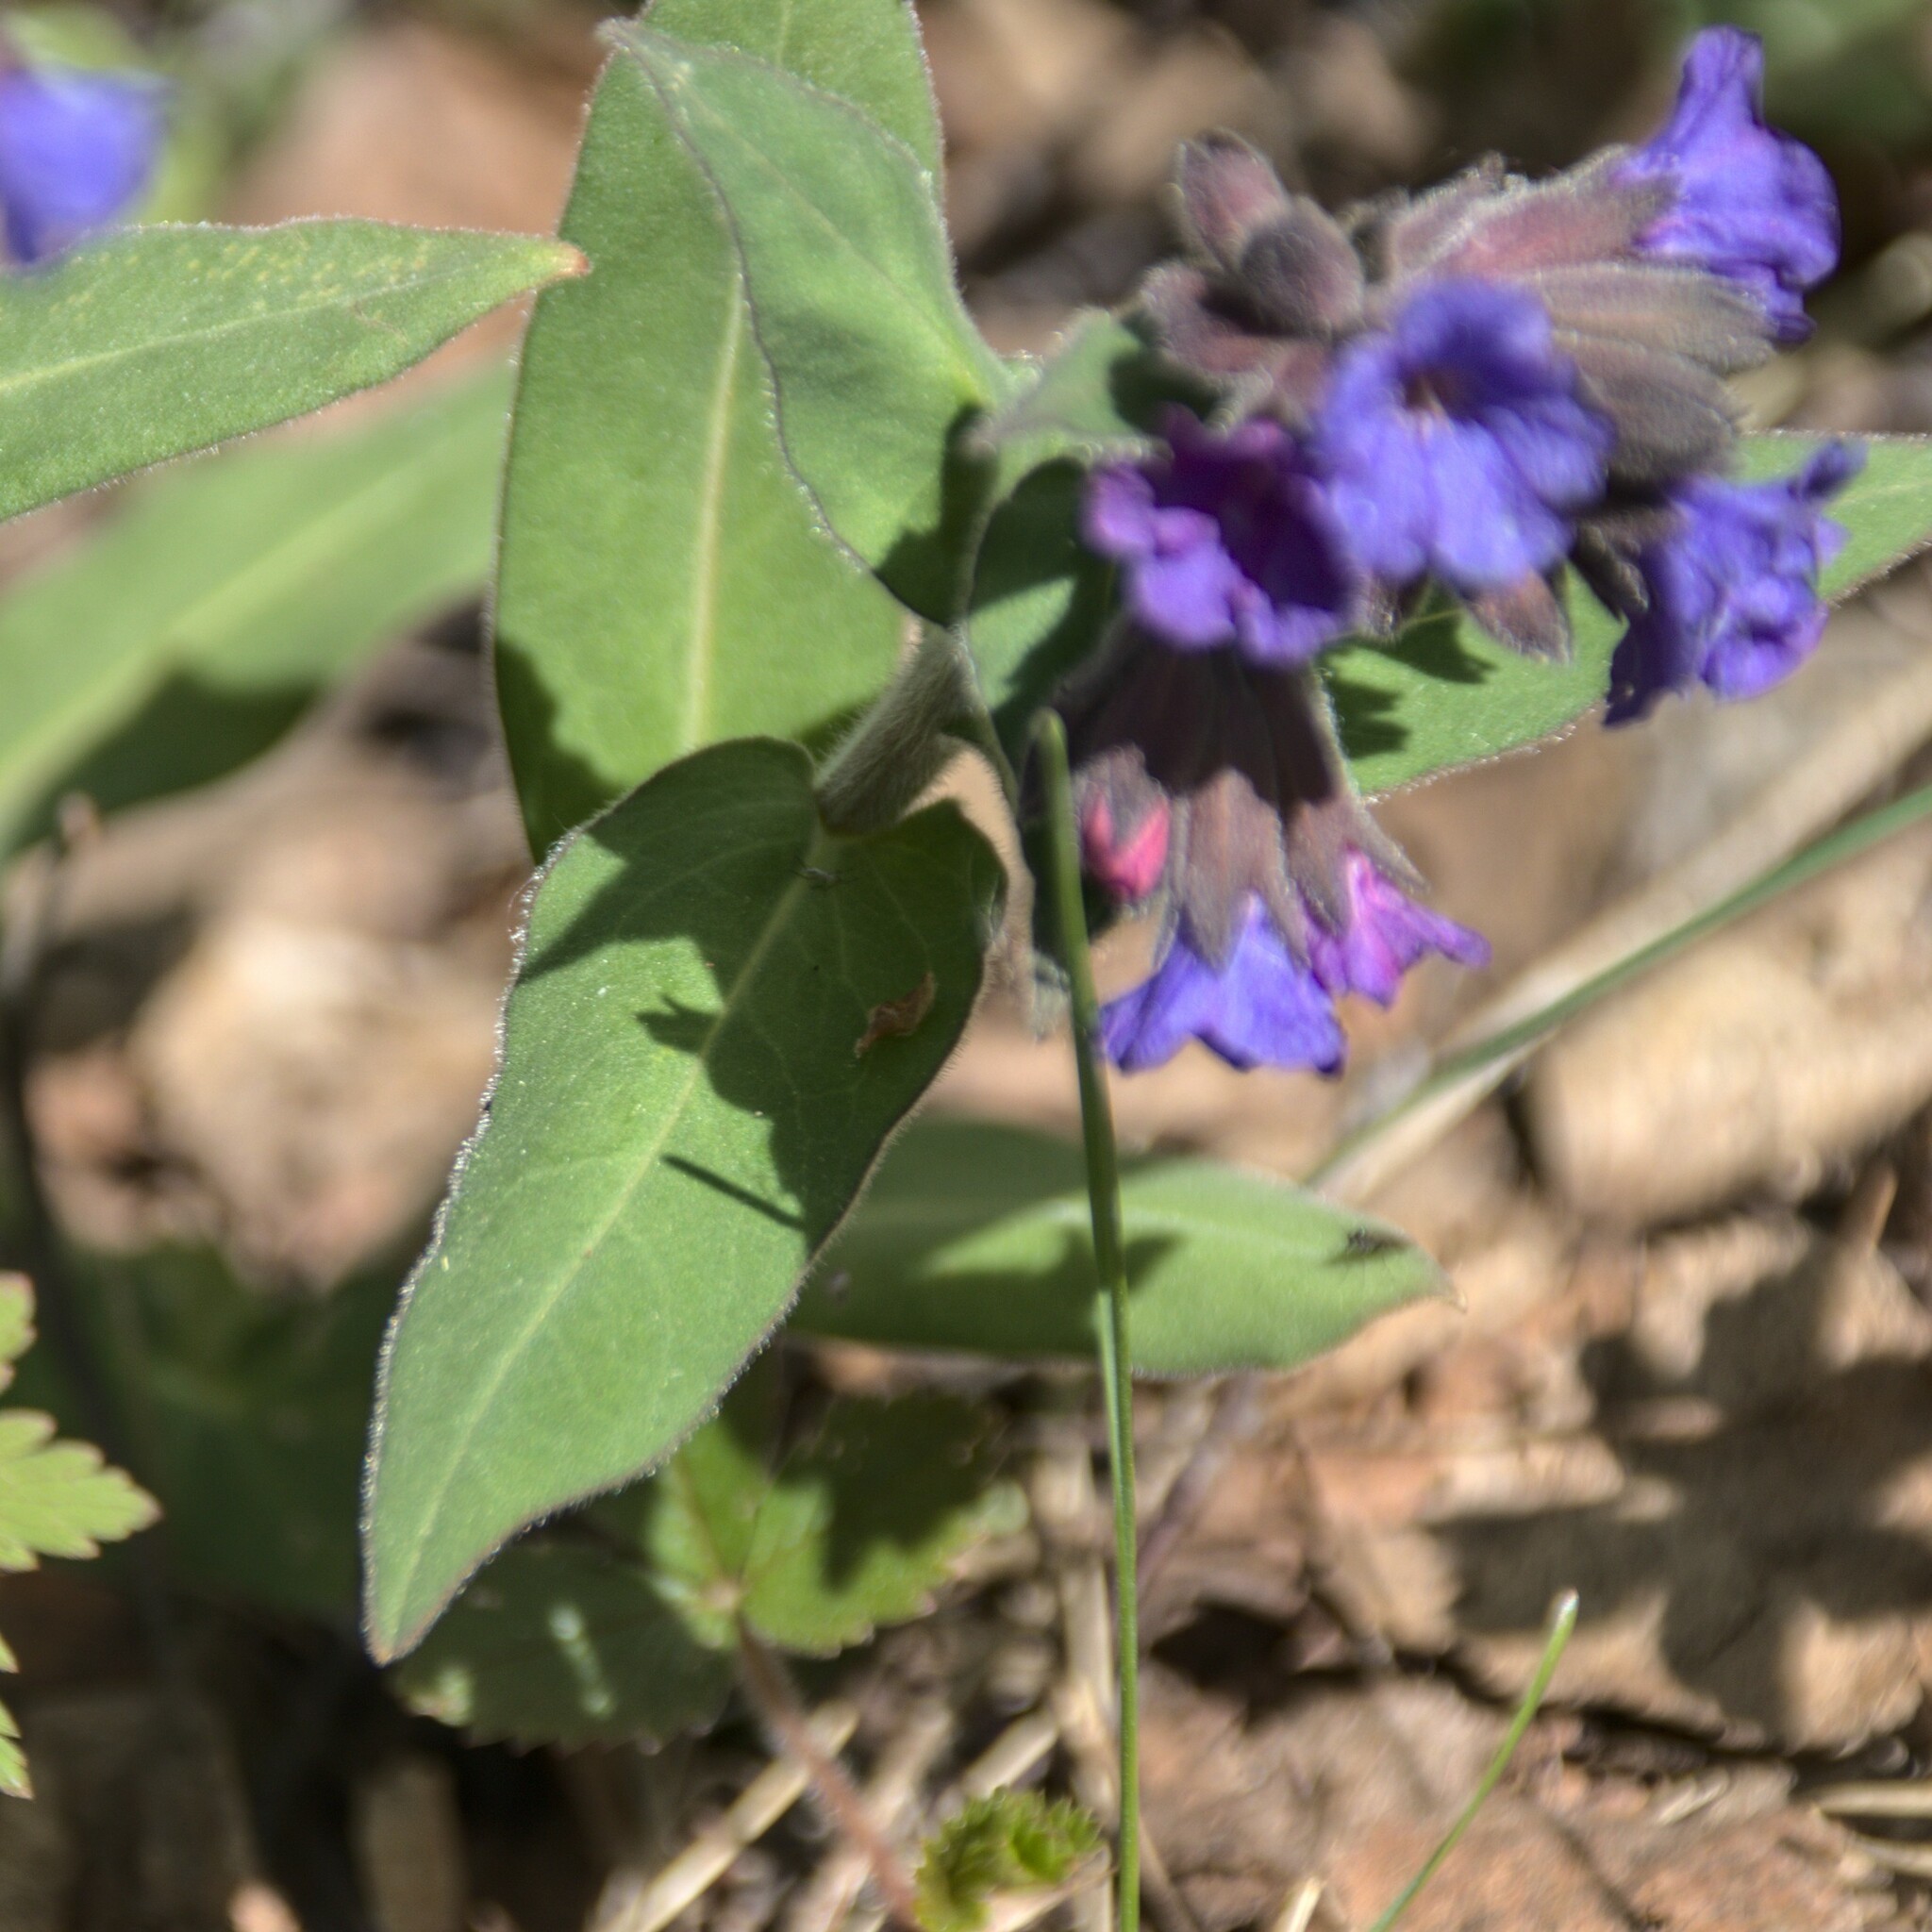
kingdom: Plantae
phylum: Tracheophyta
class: Magnoliopsida
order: Boraginales
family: Boraginaceae
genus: Pulmonaria
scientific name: Pulmonaria mollis
